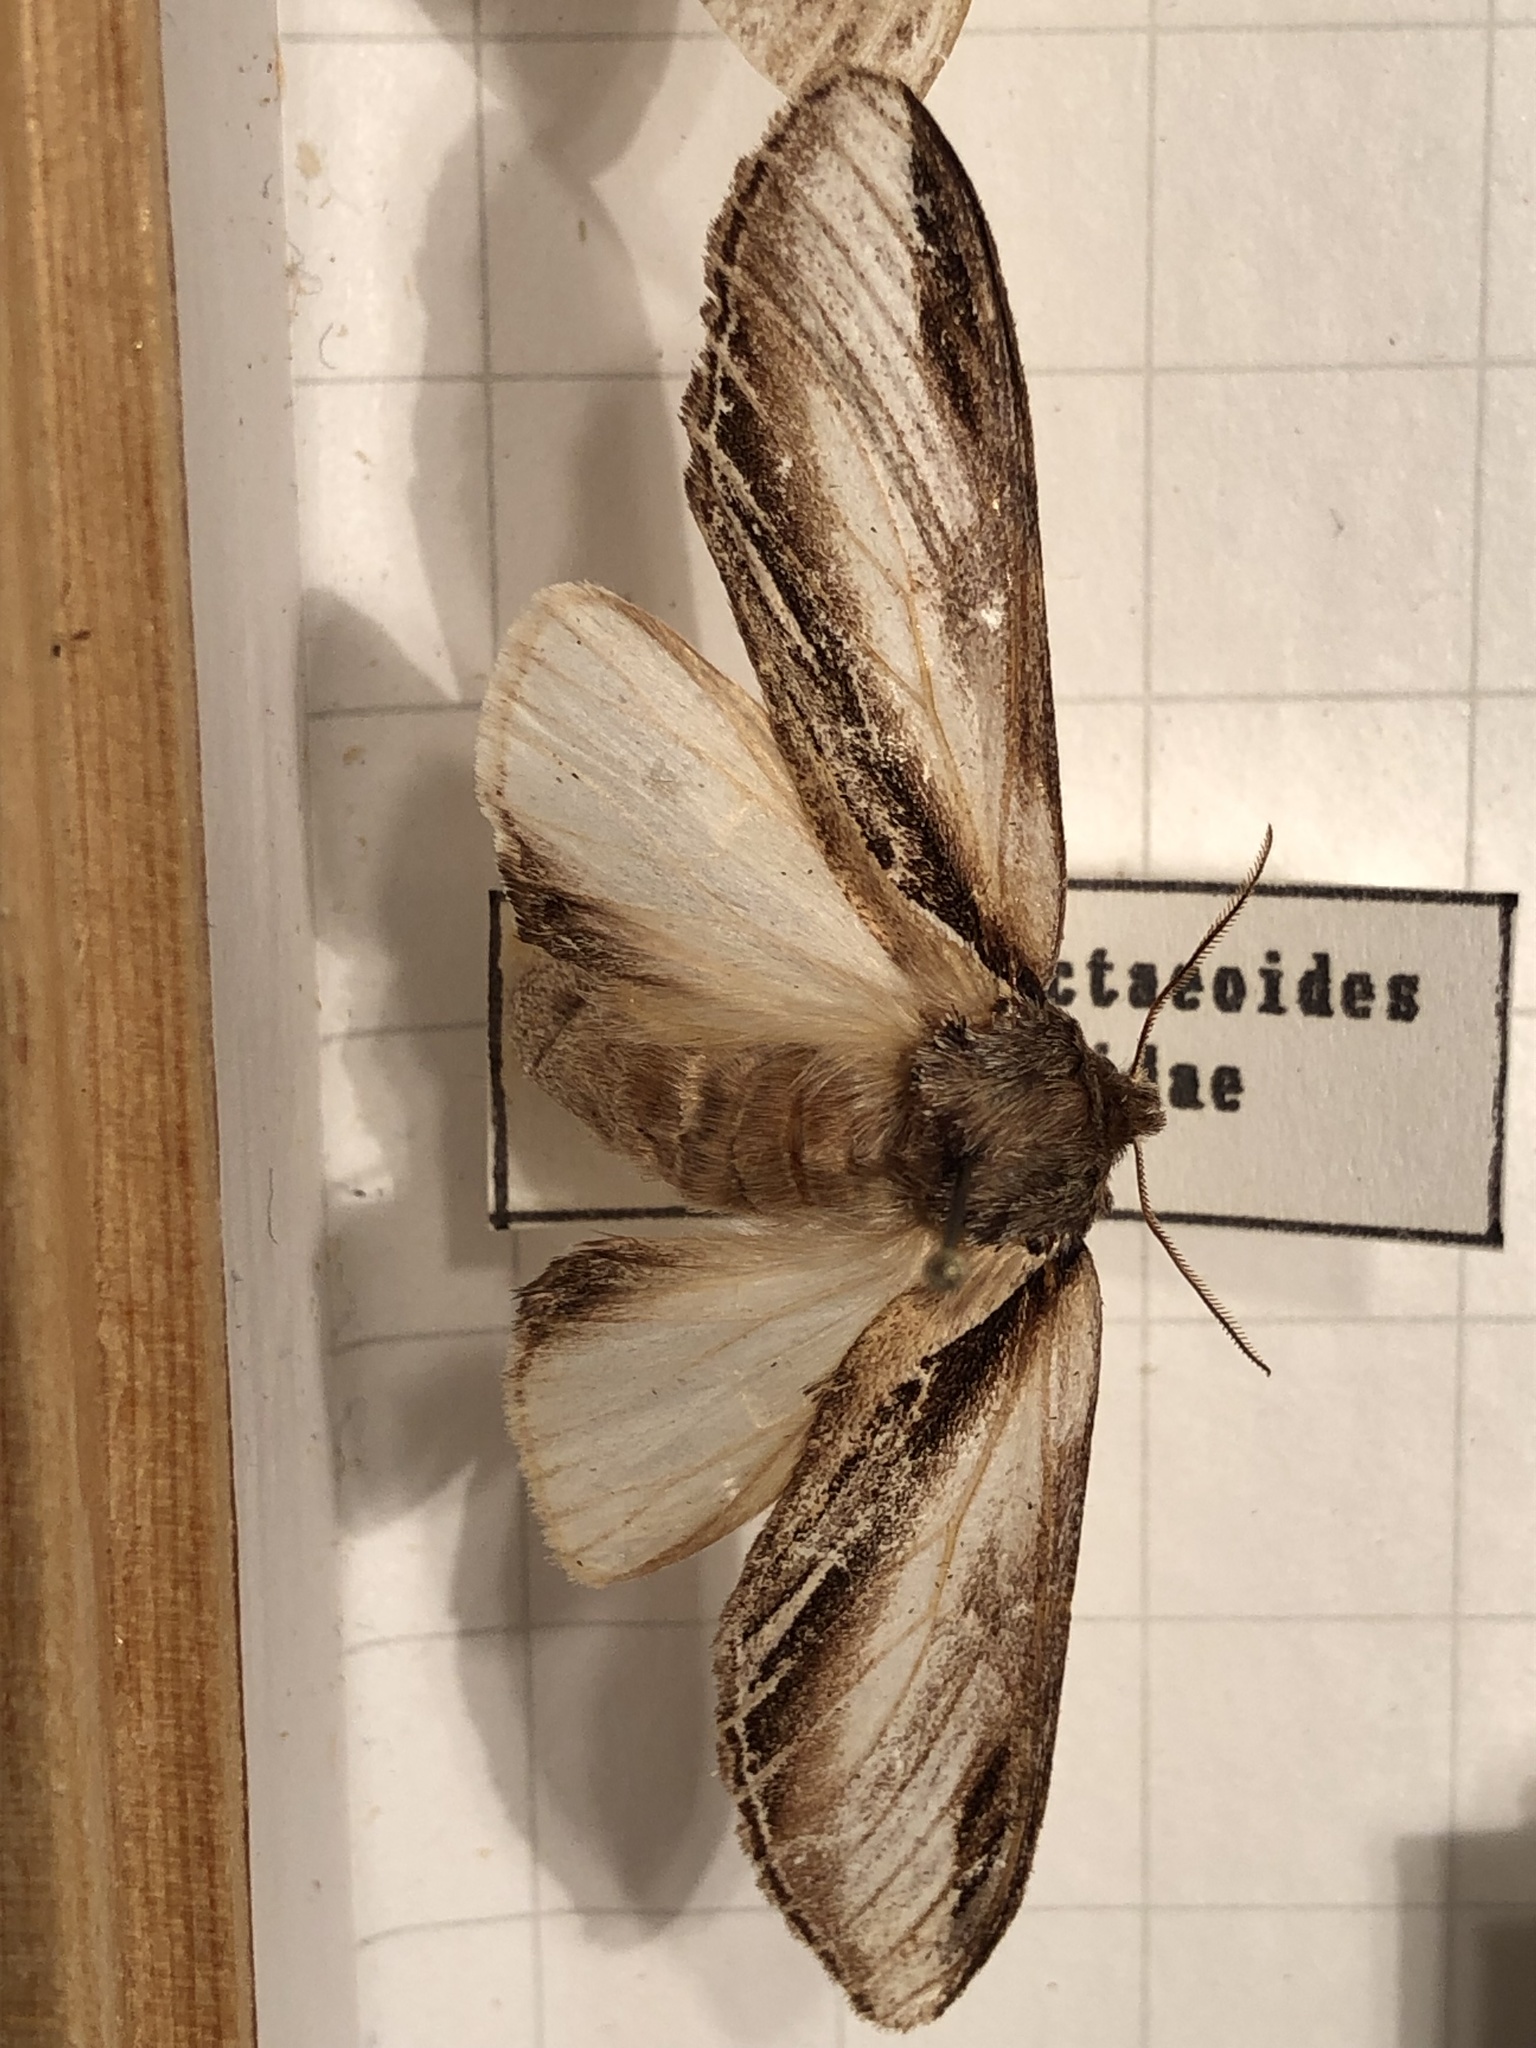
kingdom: Animalia
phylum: Arthropoda
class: Insecta
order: Lepidoptera
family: Notodontidae
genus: Pheosia
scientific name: Pheosia tremula
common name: Swallow prominent
